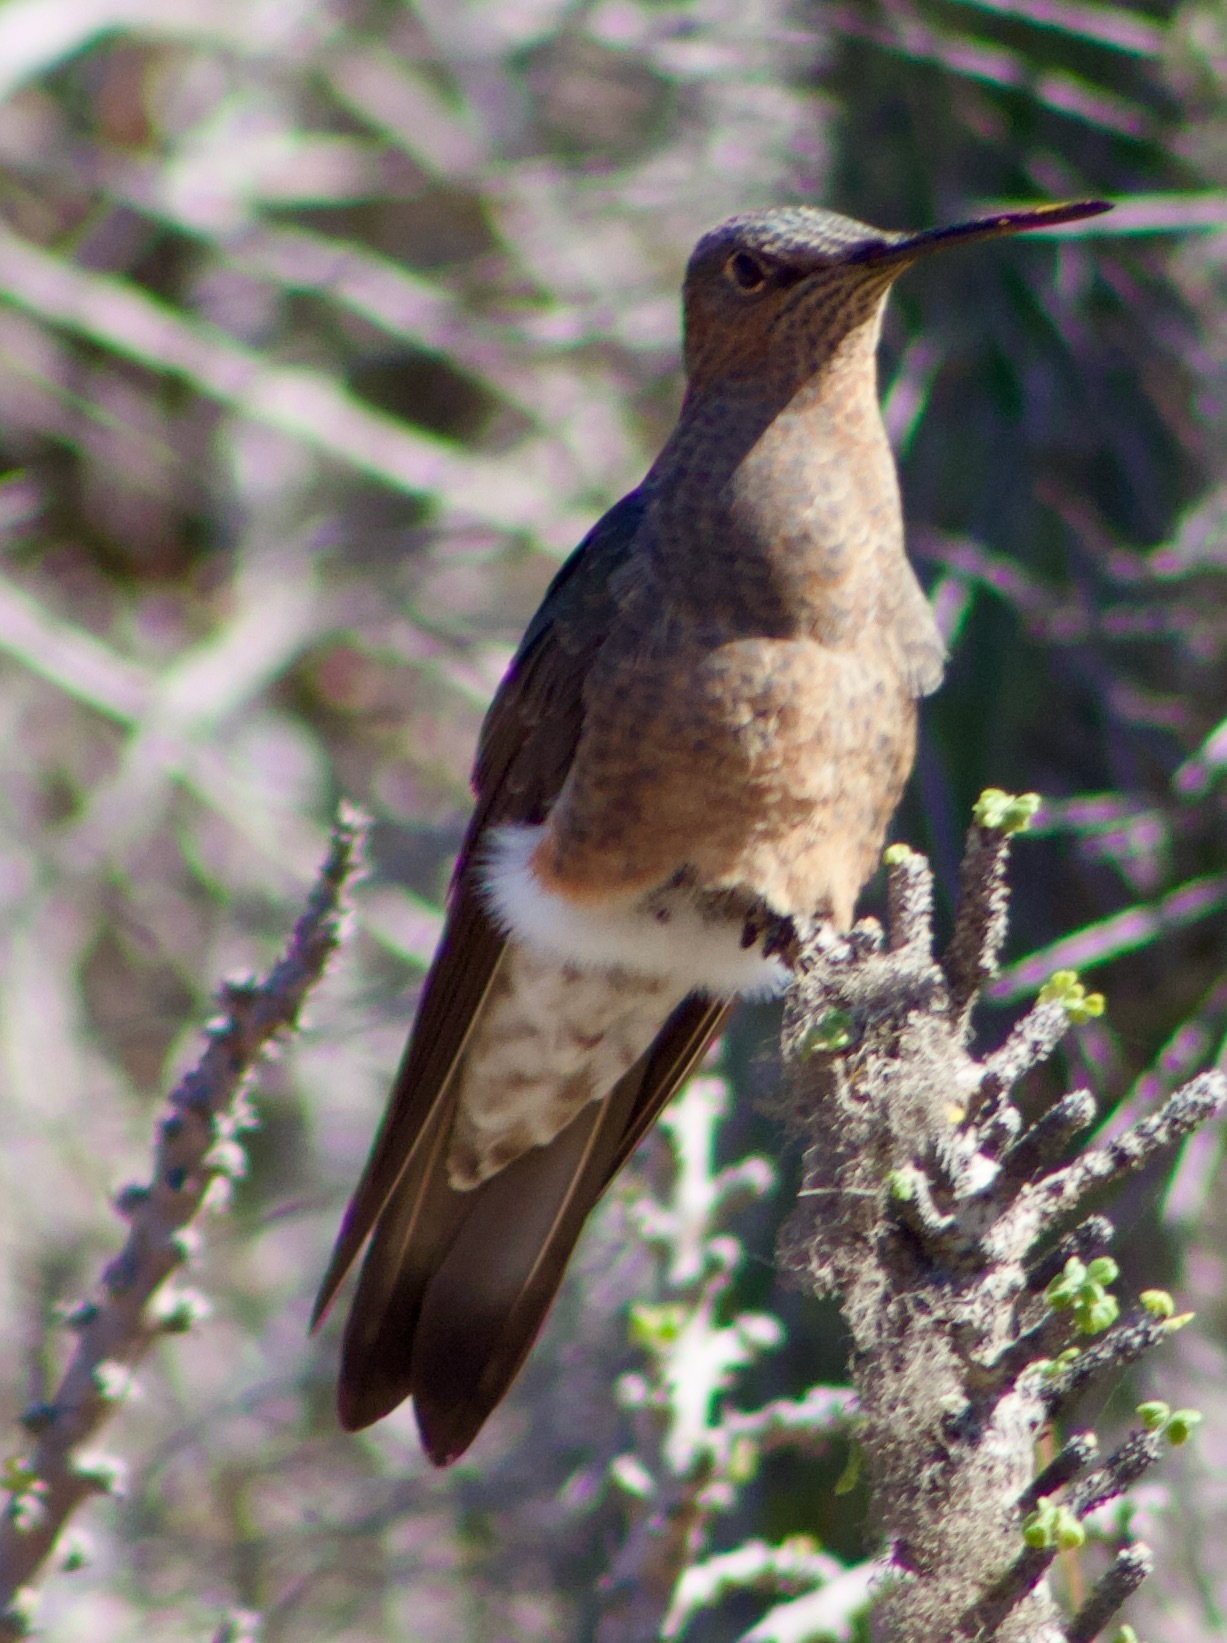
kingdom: Animalia
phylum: Chordata
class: Aves
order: Apodiformes
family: Trochilidae
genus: Patagona
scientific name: Patagona gigas
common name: Giant hummingbird
